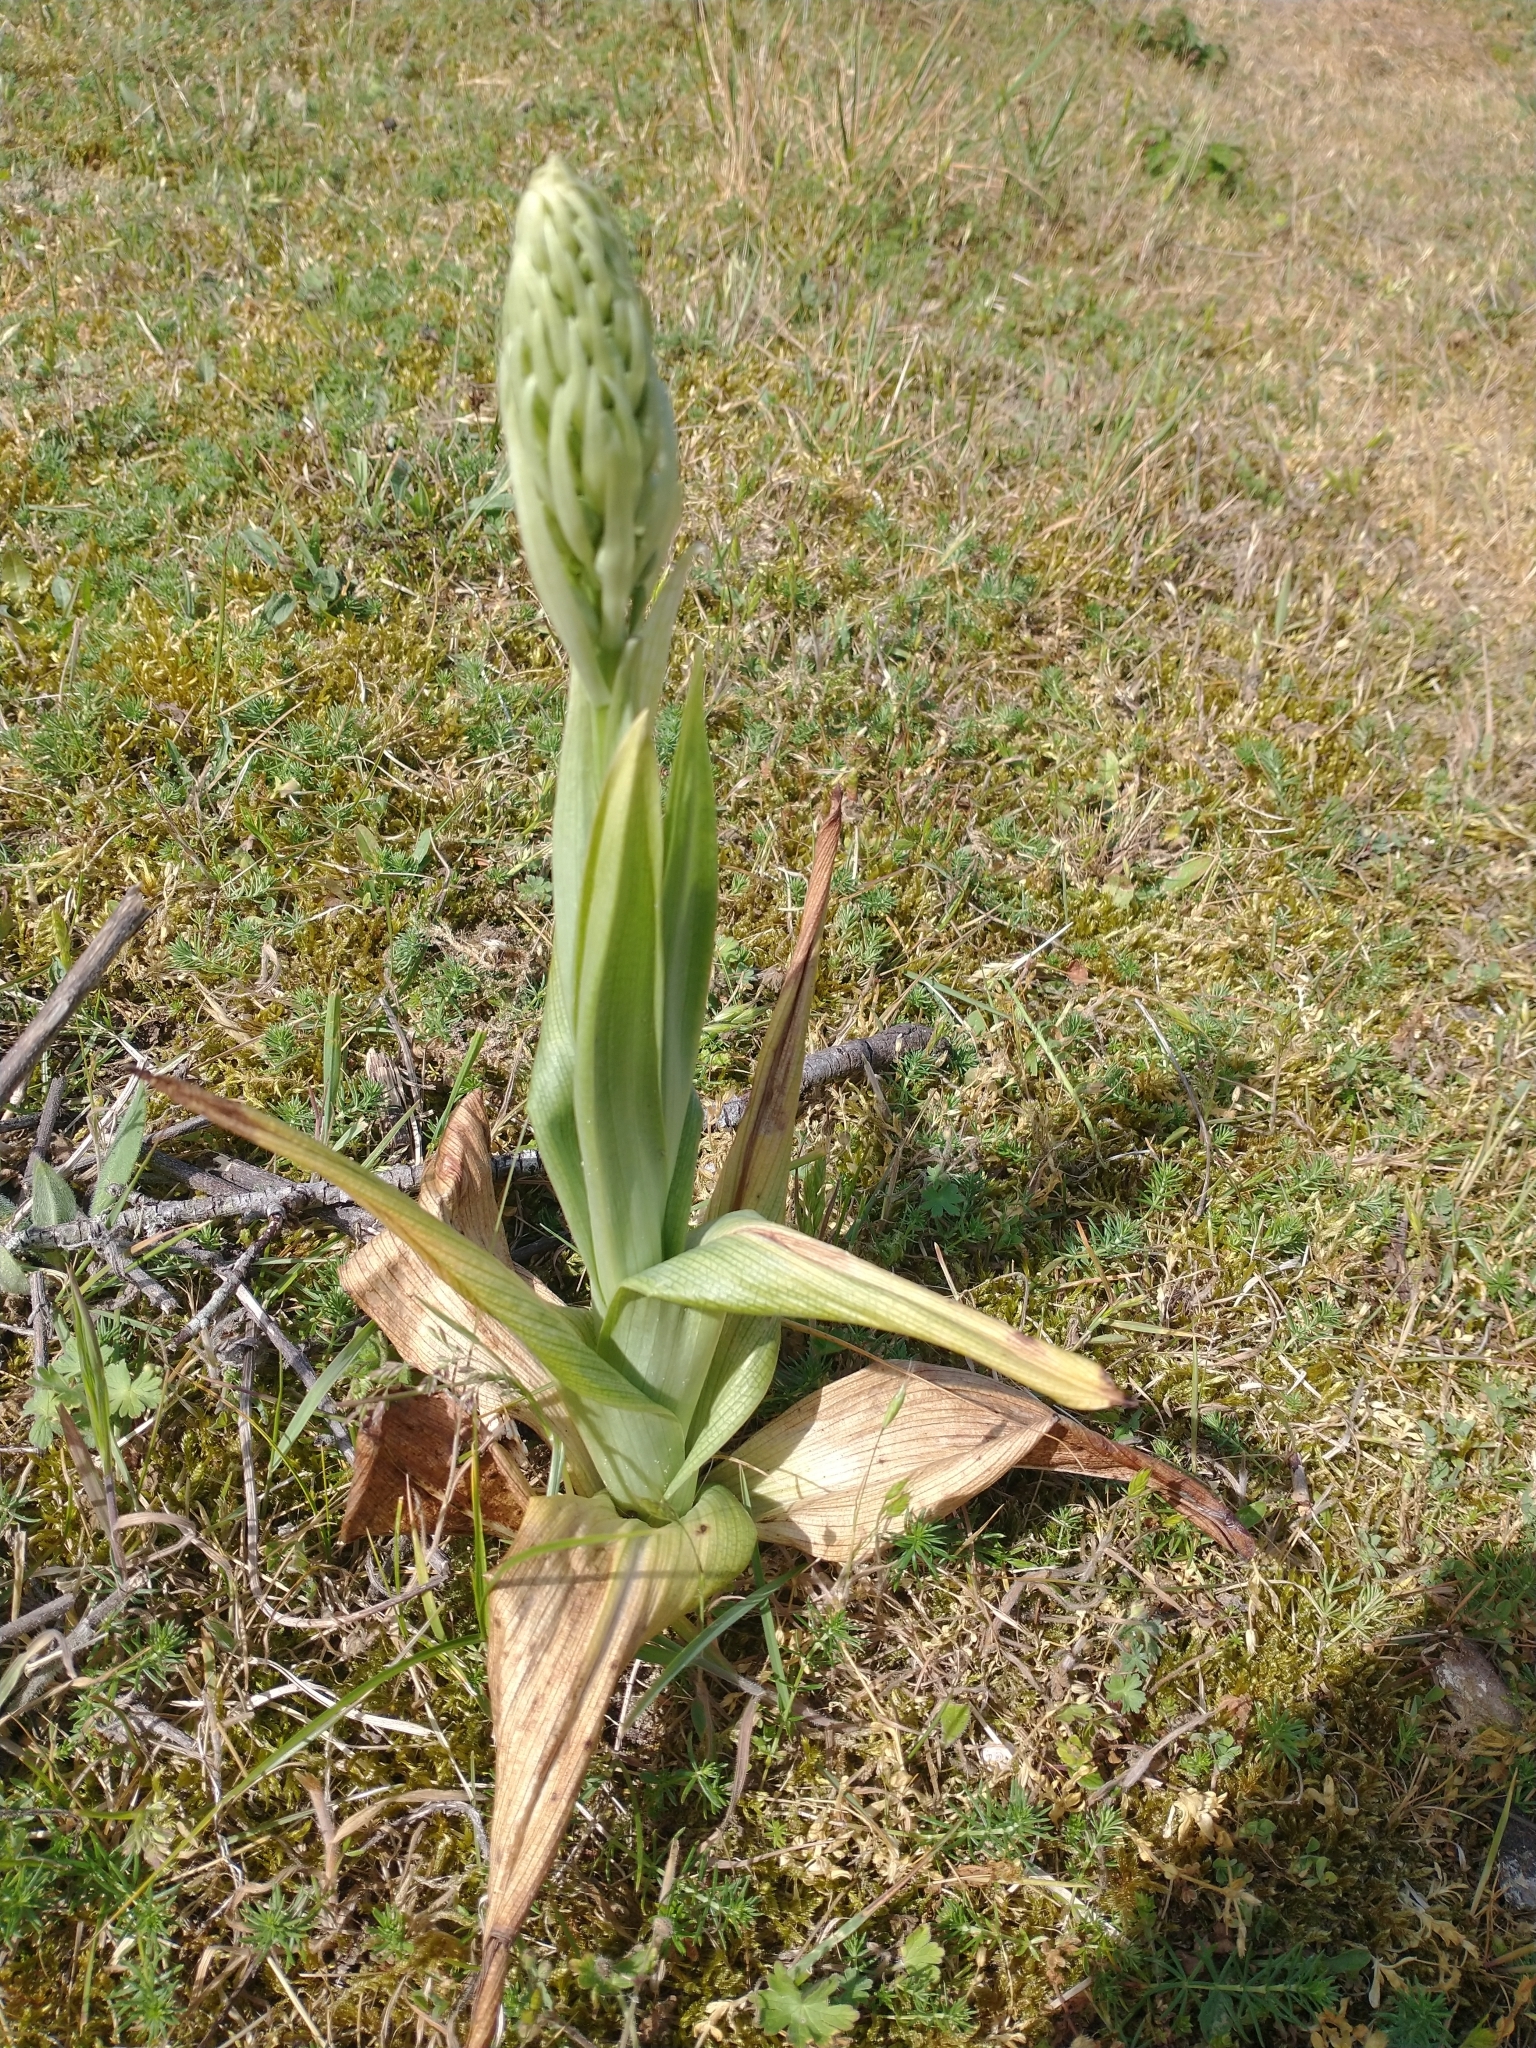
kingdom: Plantae
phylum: Tracheophyta
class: Liliopsida
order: Asparagales
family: Orchidaceae
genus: Himantoglossum
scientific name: Himantoglossum hircinum
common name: Lizard orchid
